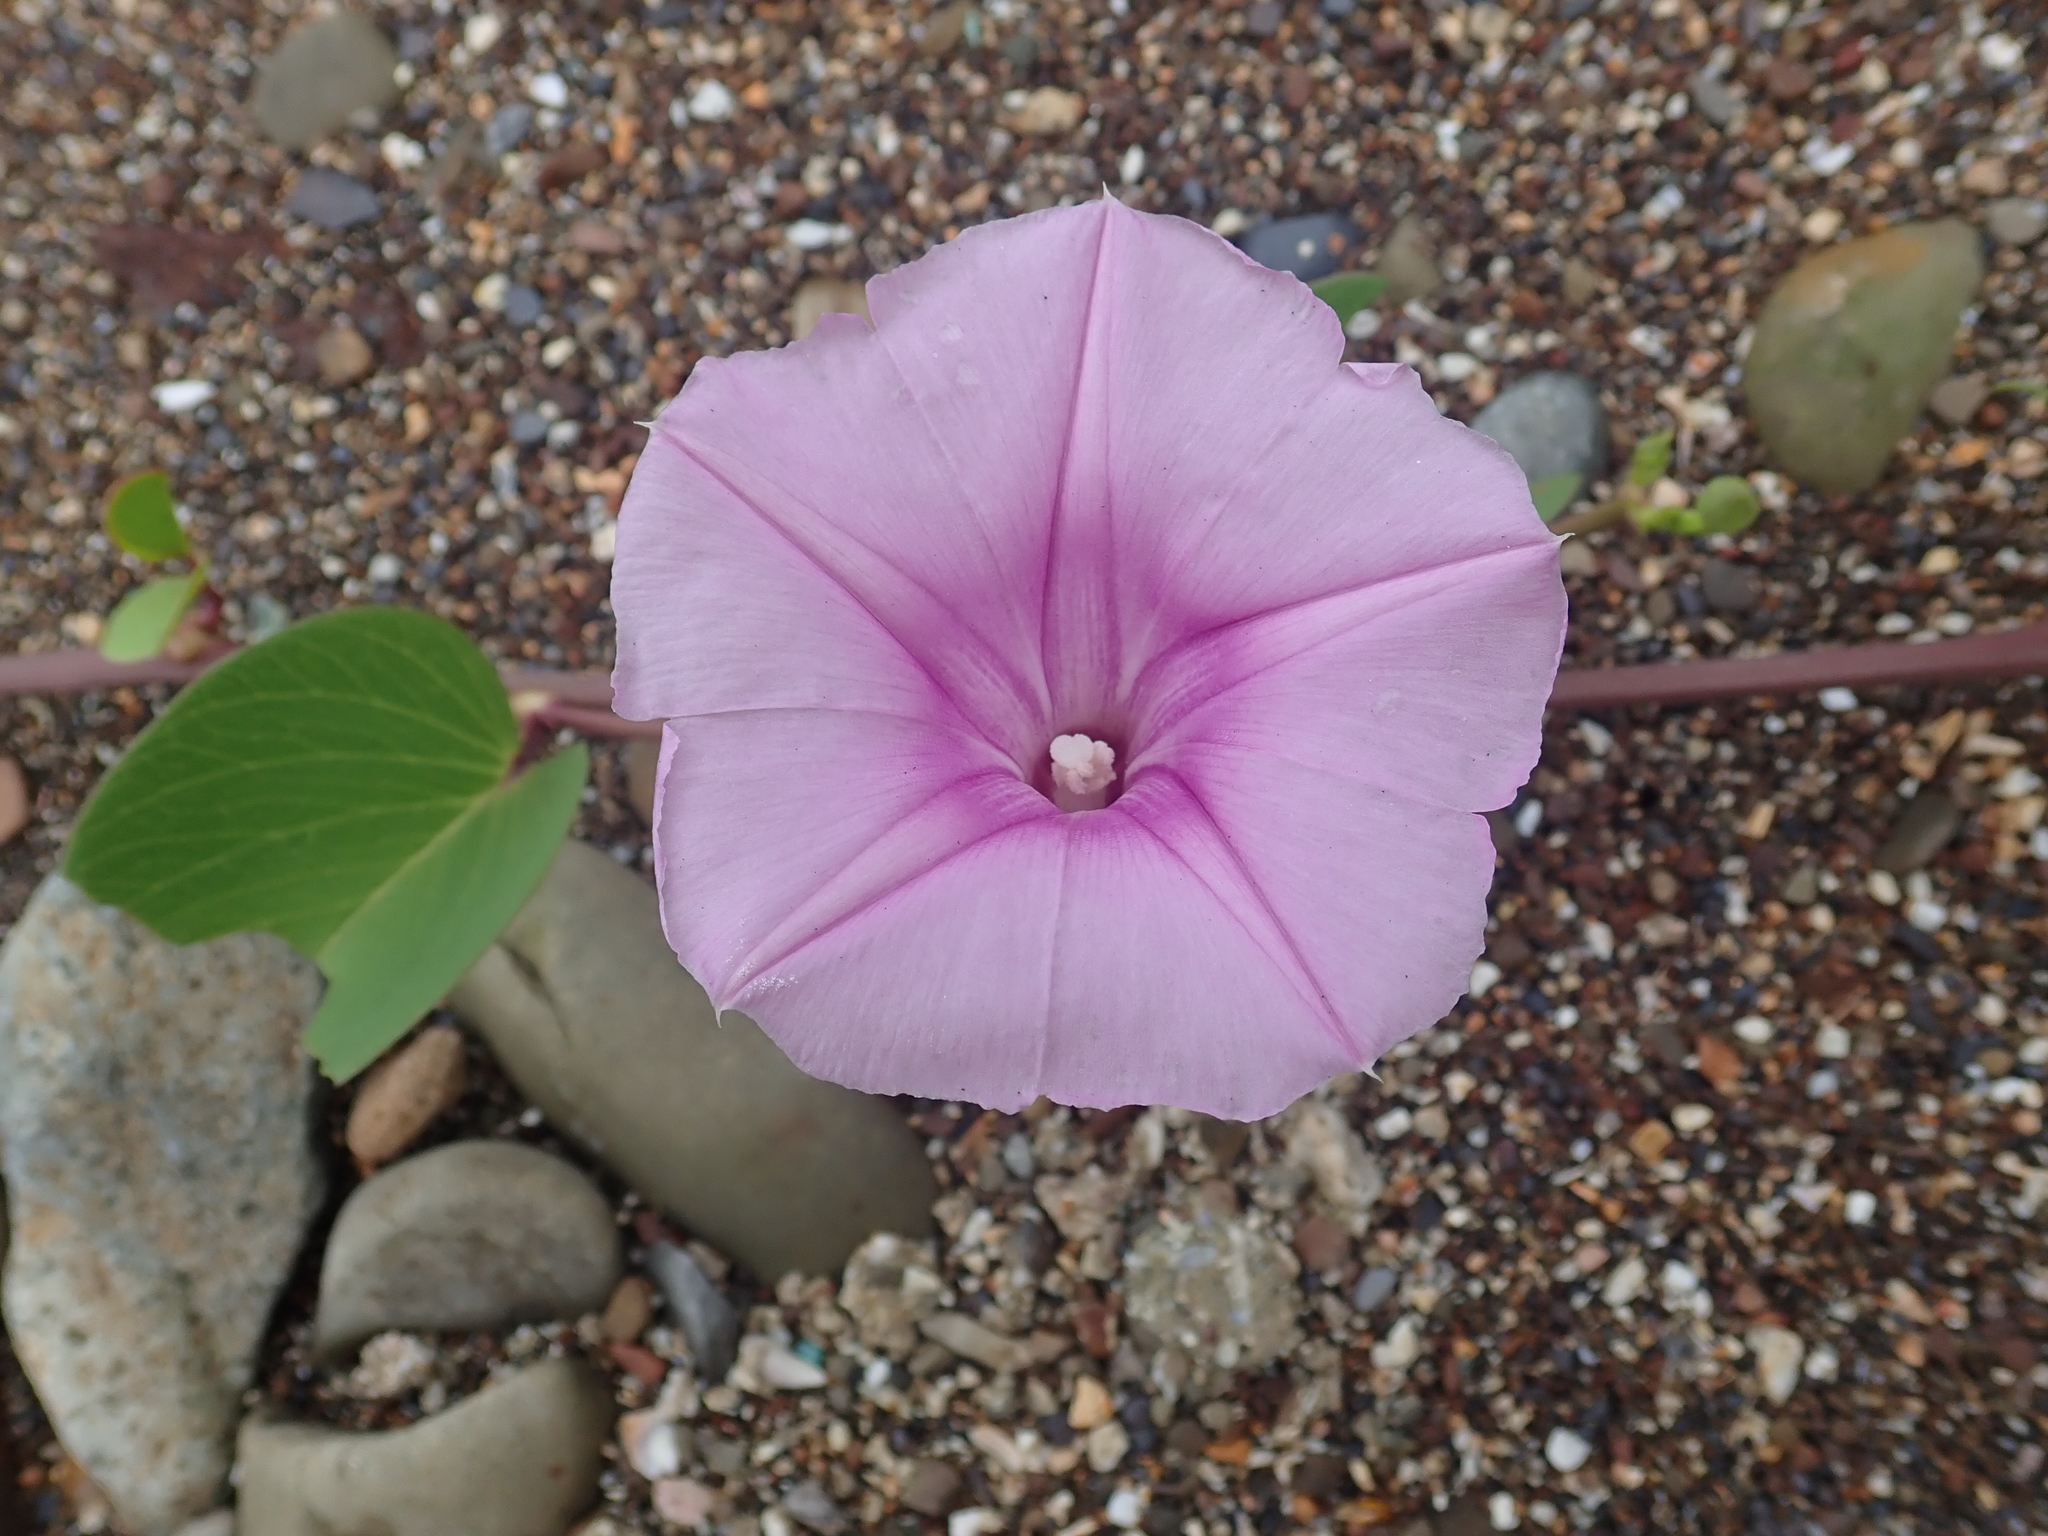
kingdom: Plantae
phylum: Tracheophyta
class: Magnoliopsida
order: Solanales
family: Convolvulaceae
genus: Ipomoea
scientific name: Ipomoea pes-caprae
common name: Beach morning glory
